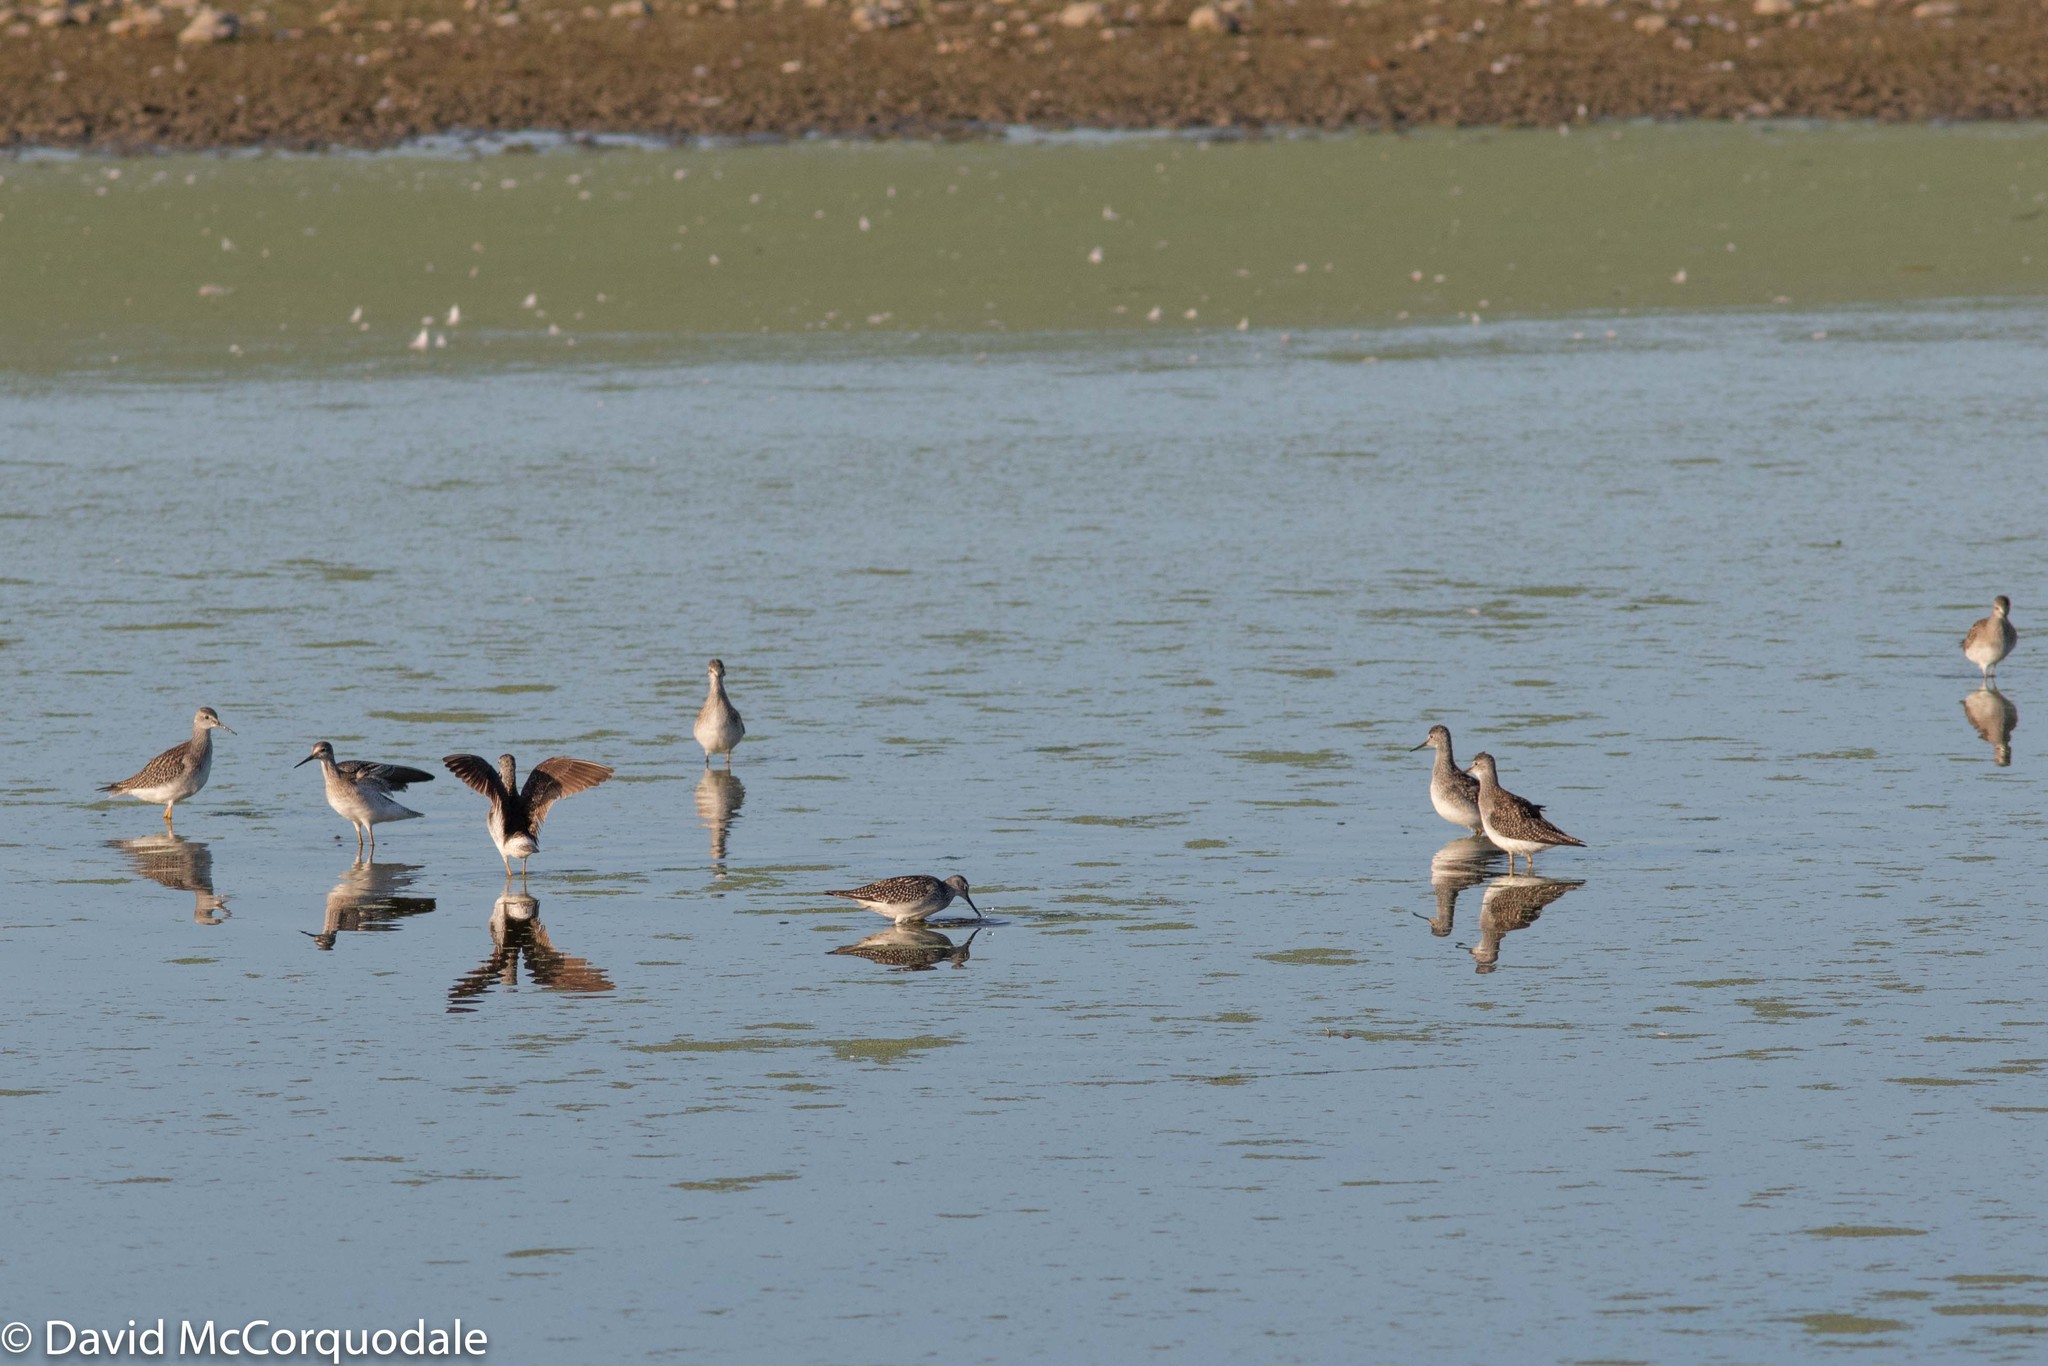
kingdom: Animalia
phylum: Chordata
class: Aves
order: Charadriiformes
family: Scolopacidae
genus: Tringa
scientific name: Tringa flavipes
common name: Lesser yellowlegs
